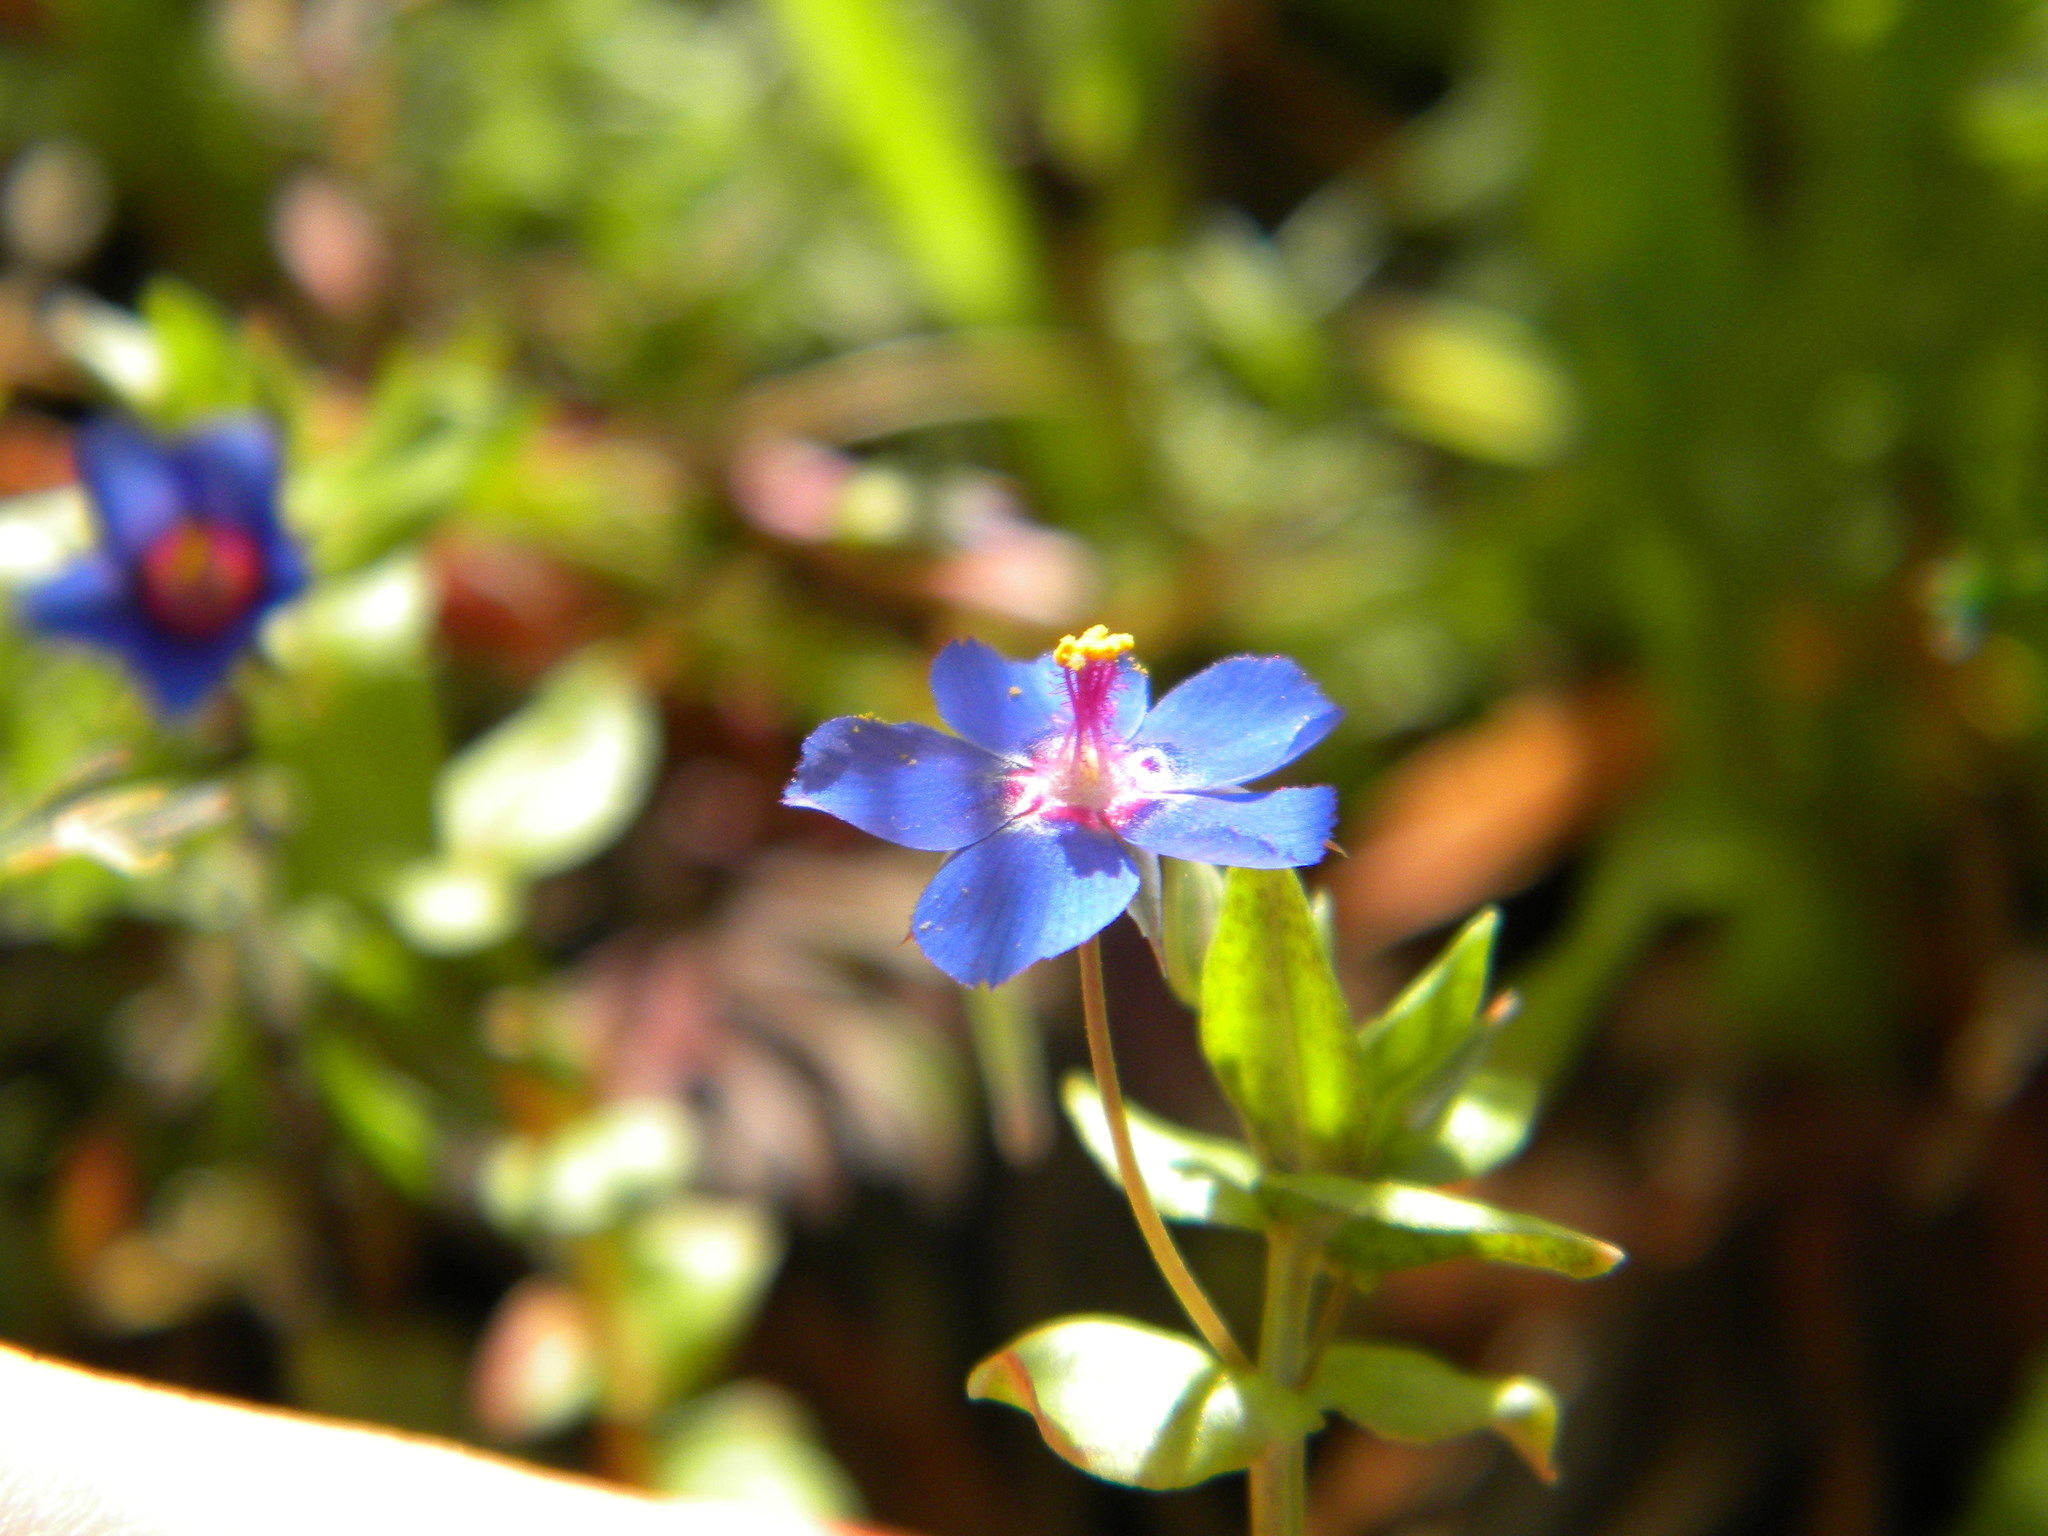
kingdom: Plantae
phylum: Tracheophyta
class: Magnoliopsida
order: Ericales
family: Primulaceae
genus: Lysimachia
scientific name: Lysimachia loeflingii
